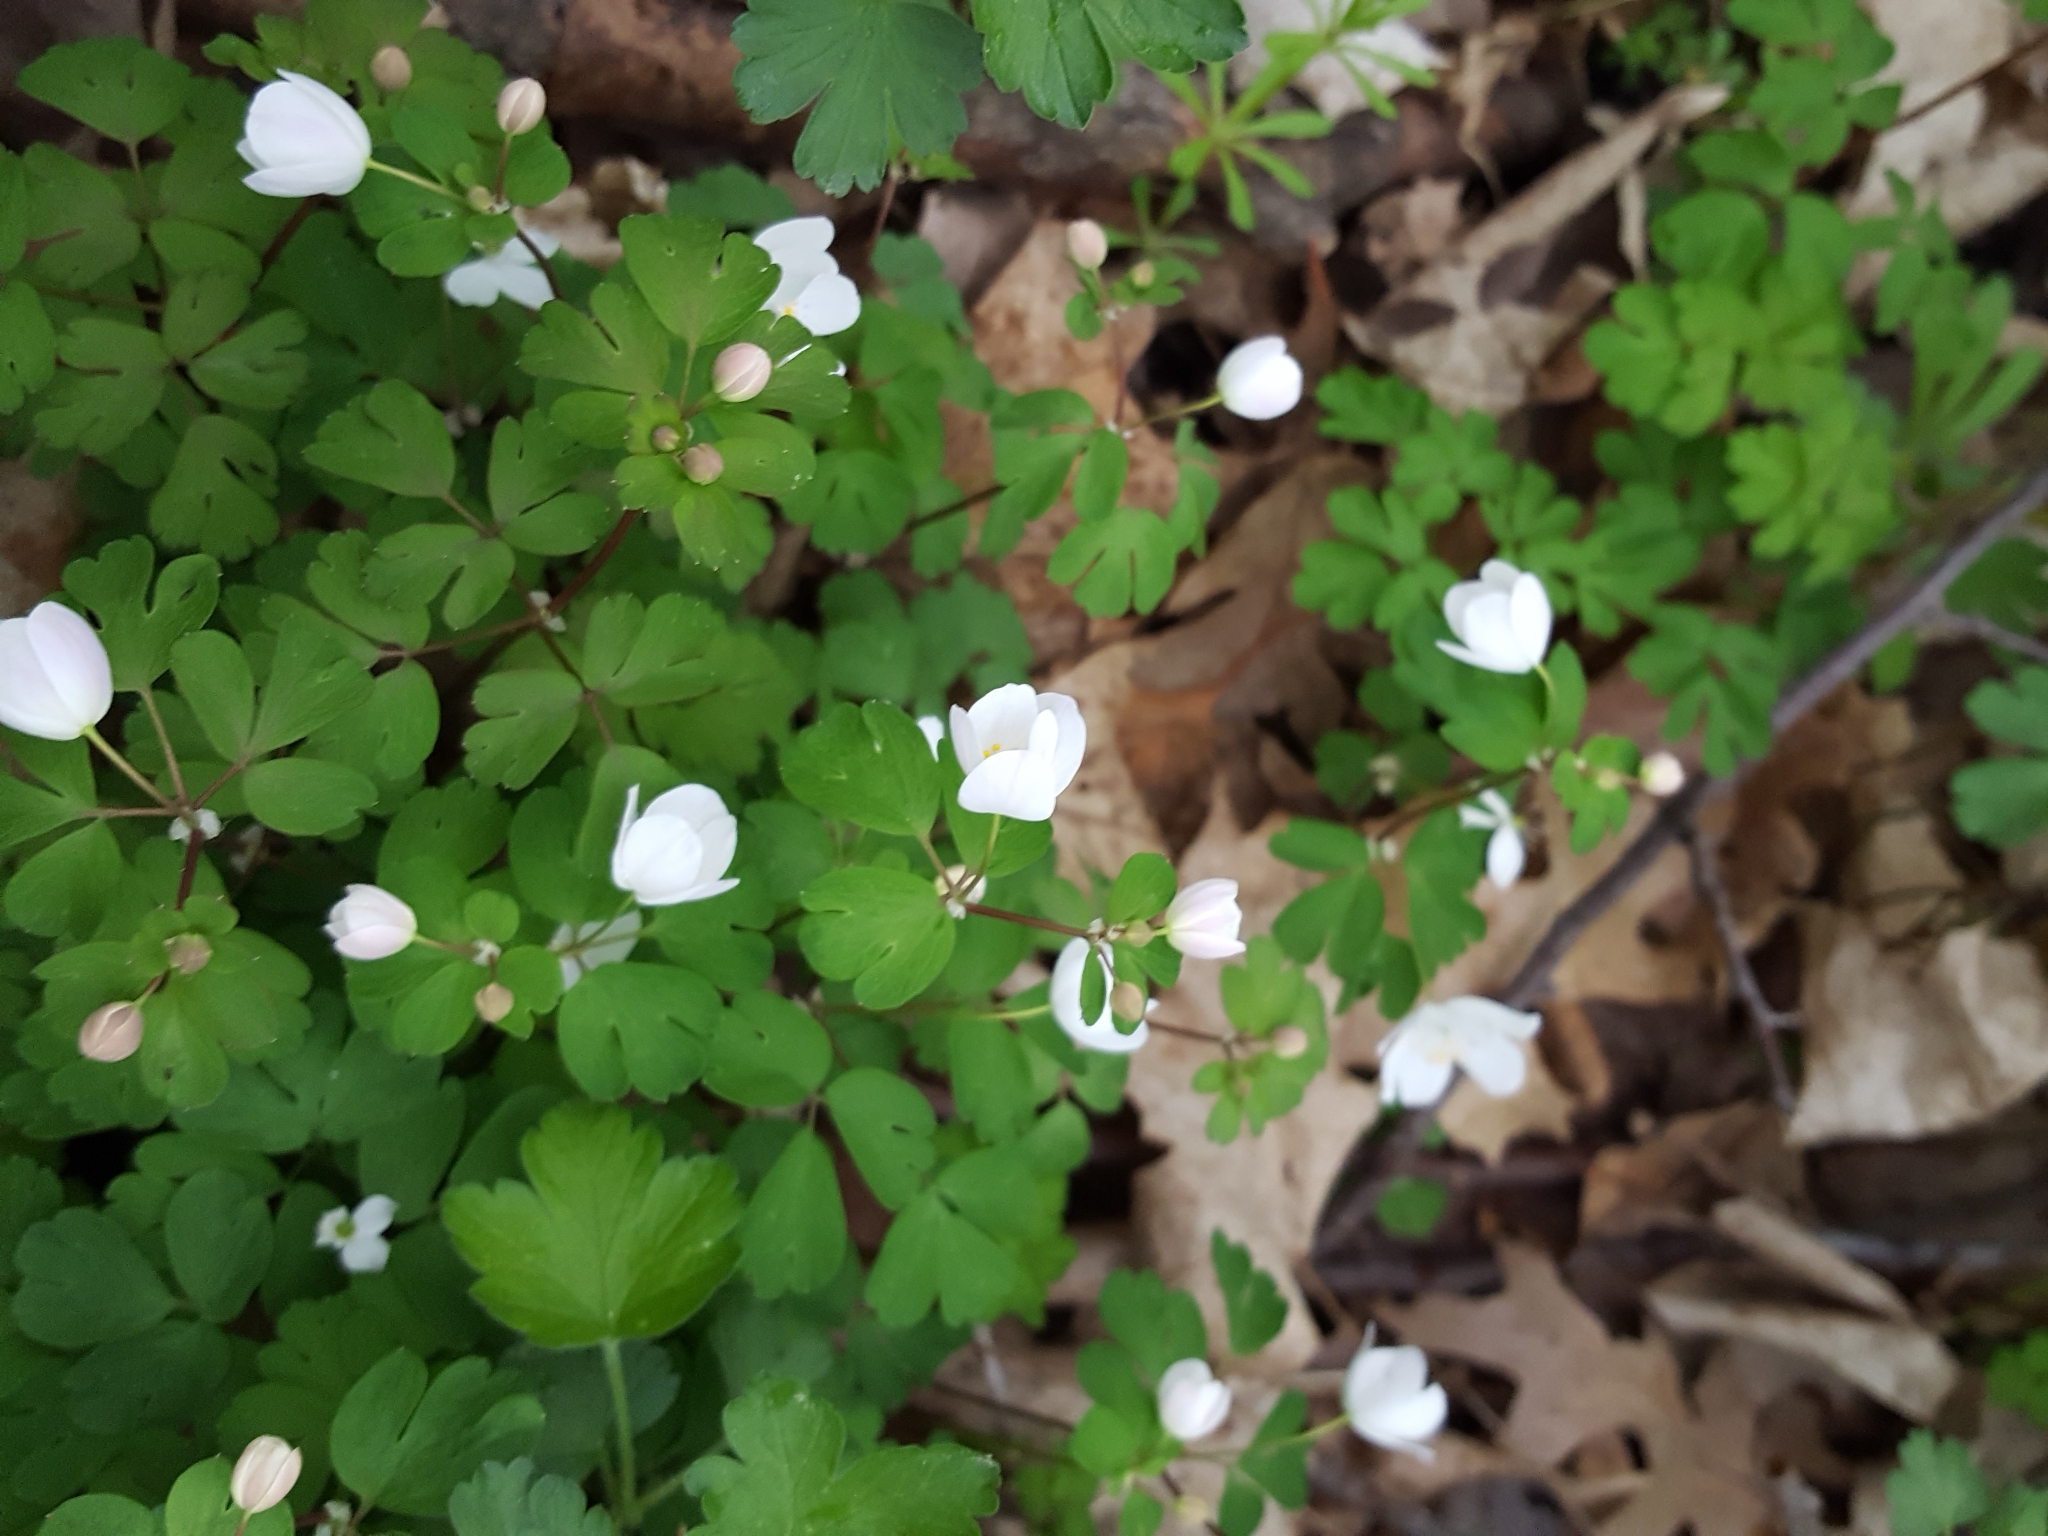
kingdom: Plantae
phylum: Tracheophyta
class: Magnoliopsida
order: Ranunculales
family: Ranunculaceae
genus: Enemion
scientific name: Enemion biternatum
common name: Eastern false rue-anemone
